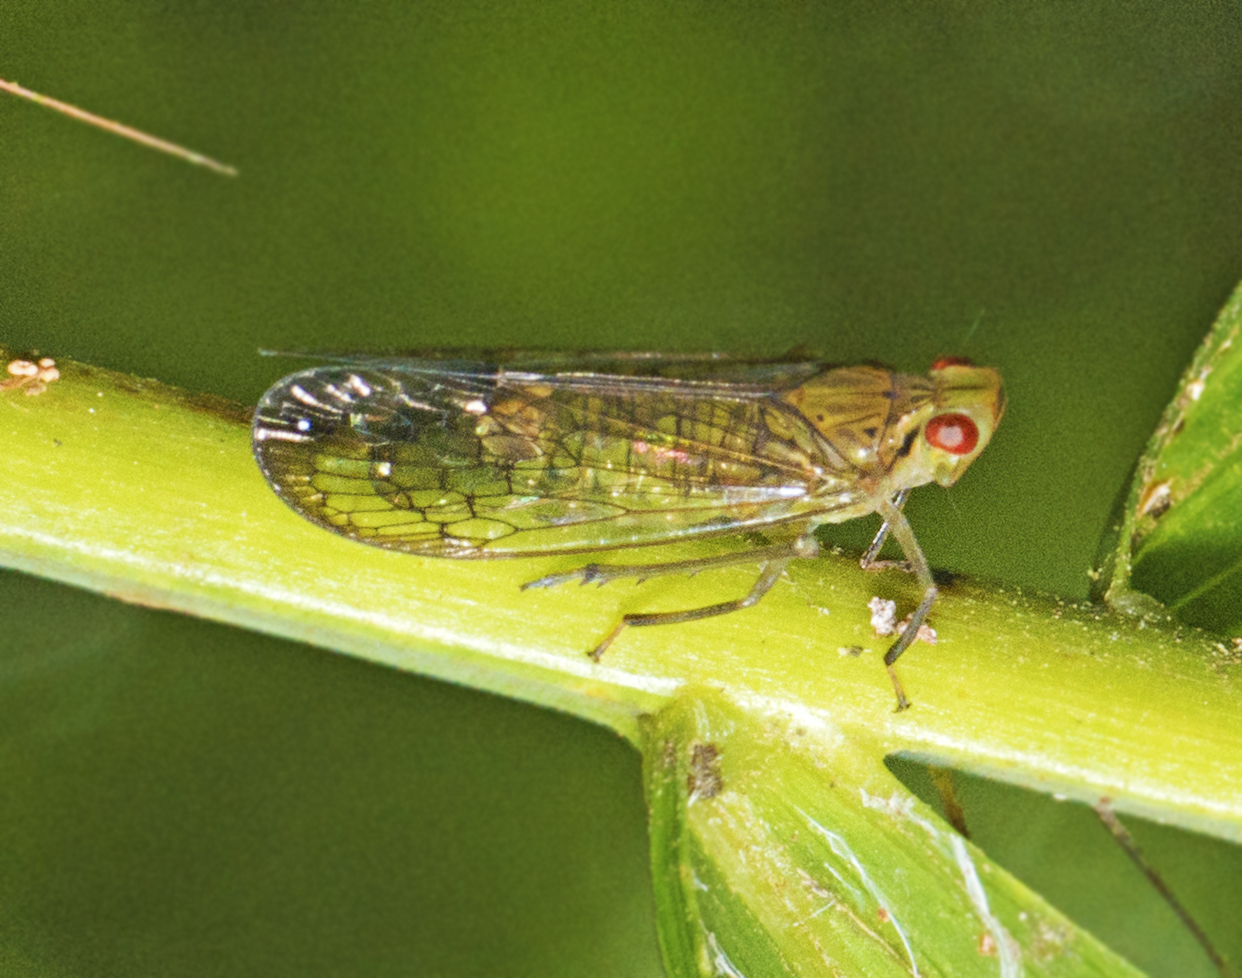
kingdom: Animalia
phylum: Arthropoda
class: Insecta
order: Hemiptera
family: Lophopidae
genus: Magia
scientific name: Magia
